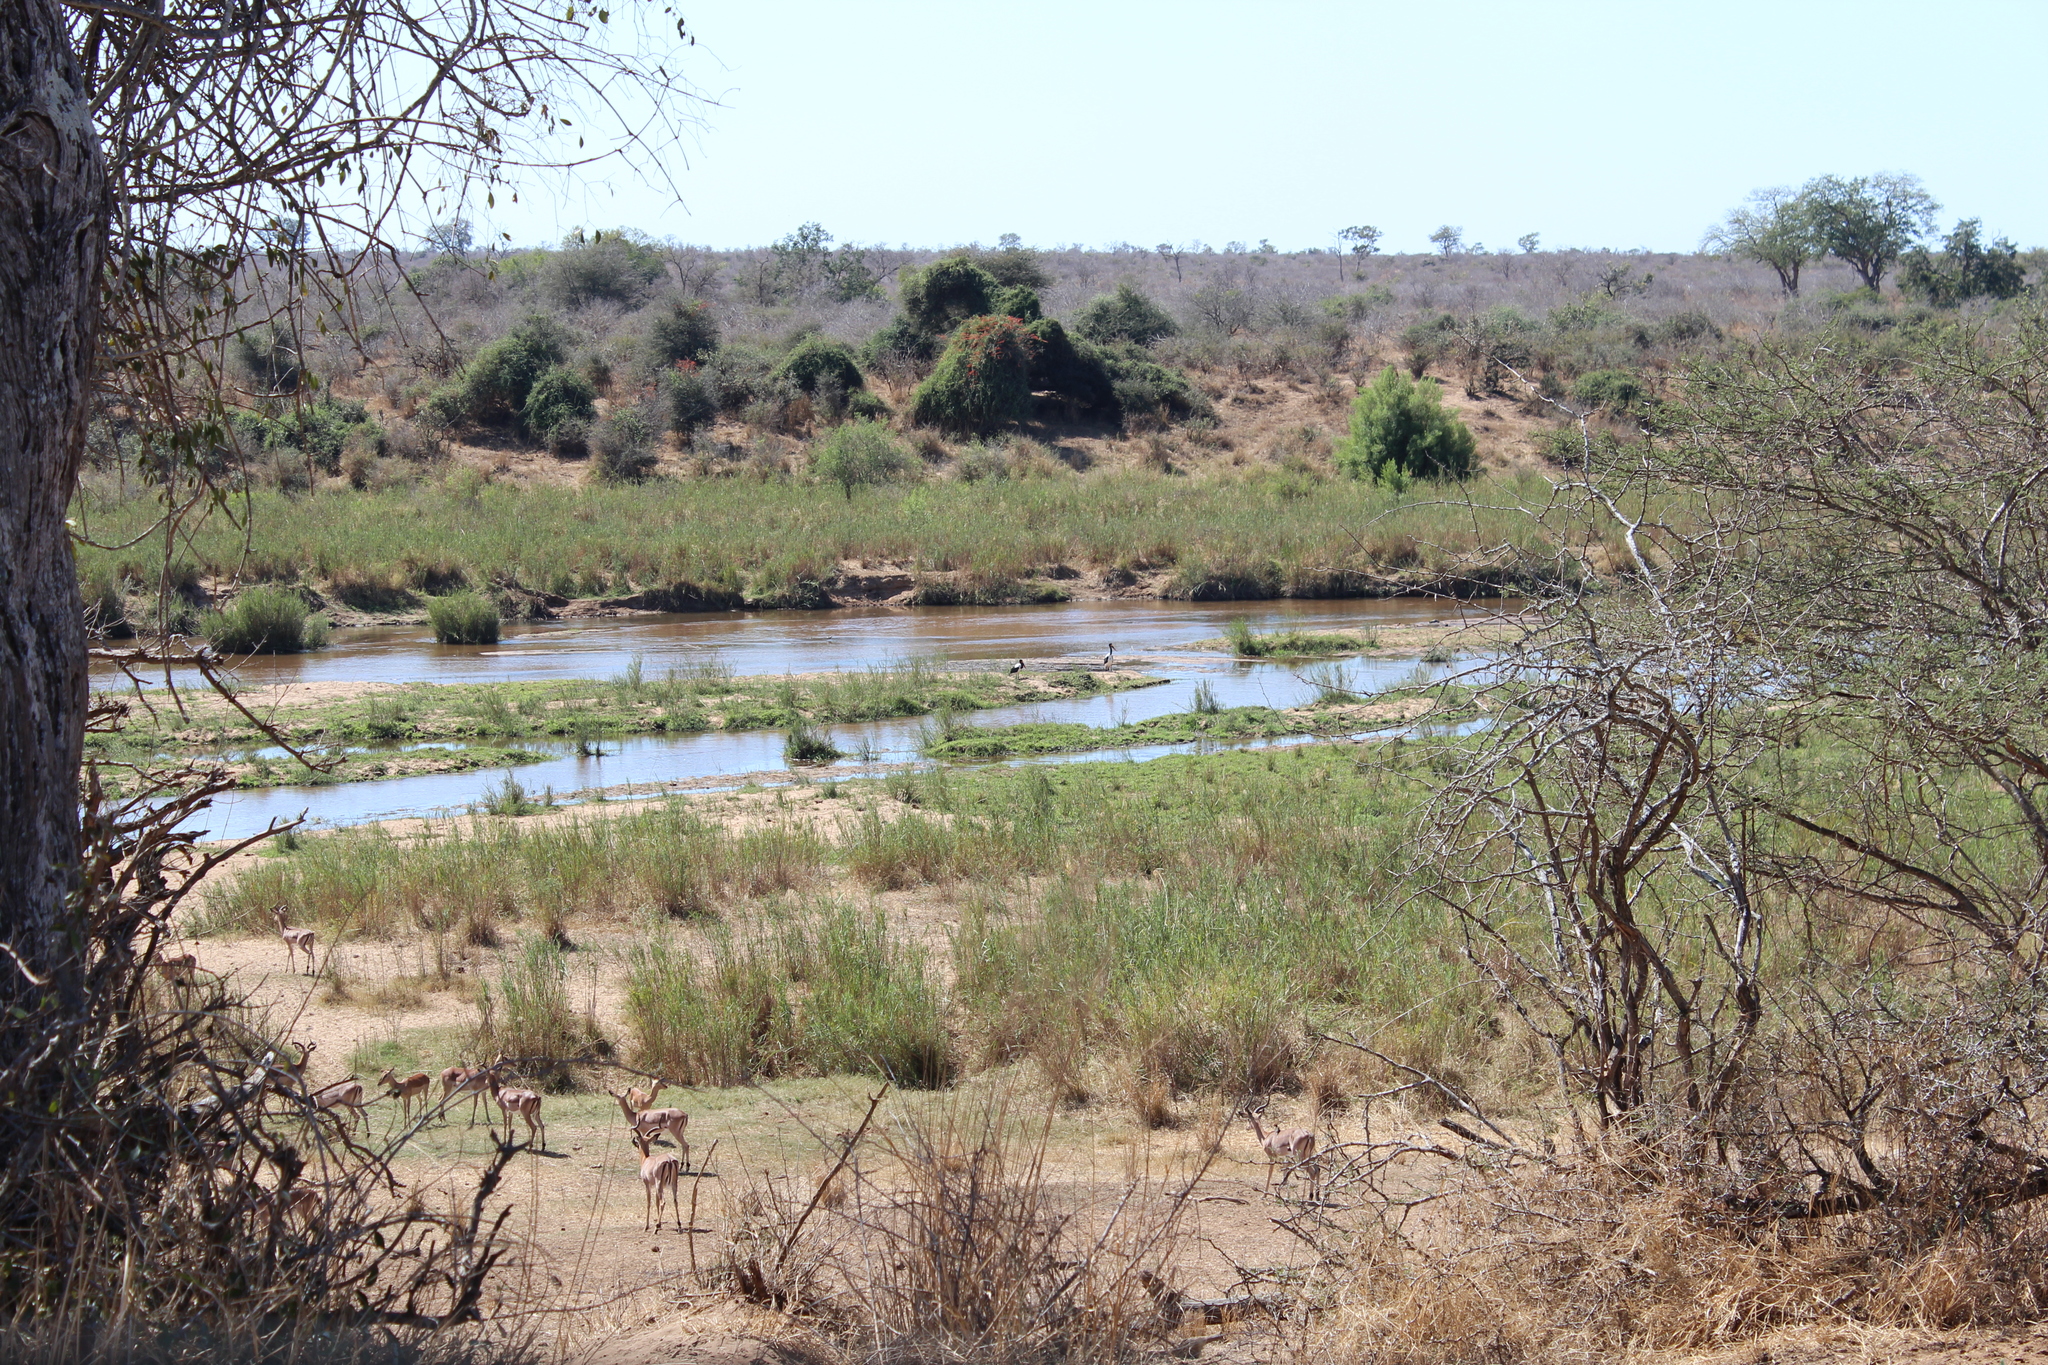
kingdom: Animalia
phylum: Chordata
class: Mammalia
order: Artiodactyla
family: Bovidae
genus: Aepyceros
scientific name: Aepyceros melampus
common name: Impala
